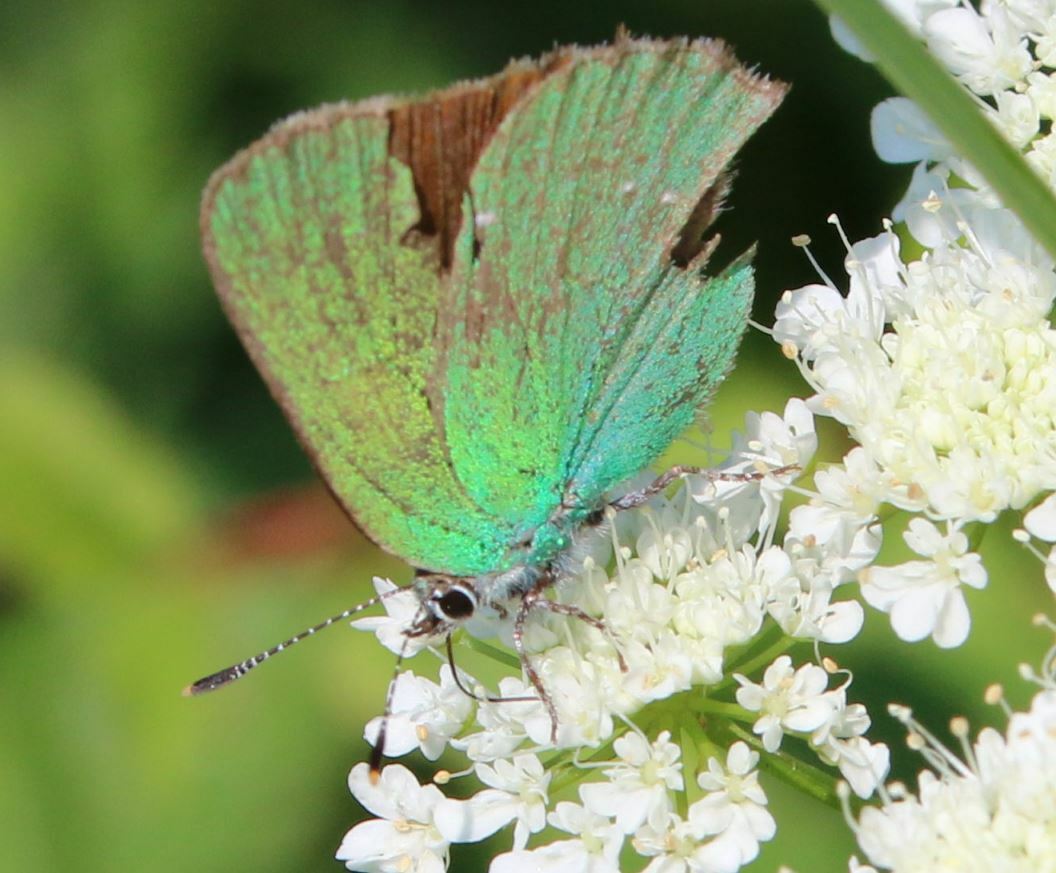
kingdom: Animalia
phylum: Arthropoda
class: Insecta
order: Lepidoptera
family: Lycaenidae
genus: Callophrys
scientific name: Callophrys rubi
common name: Green hairstreak
